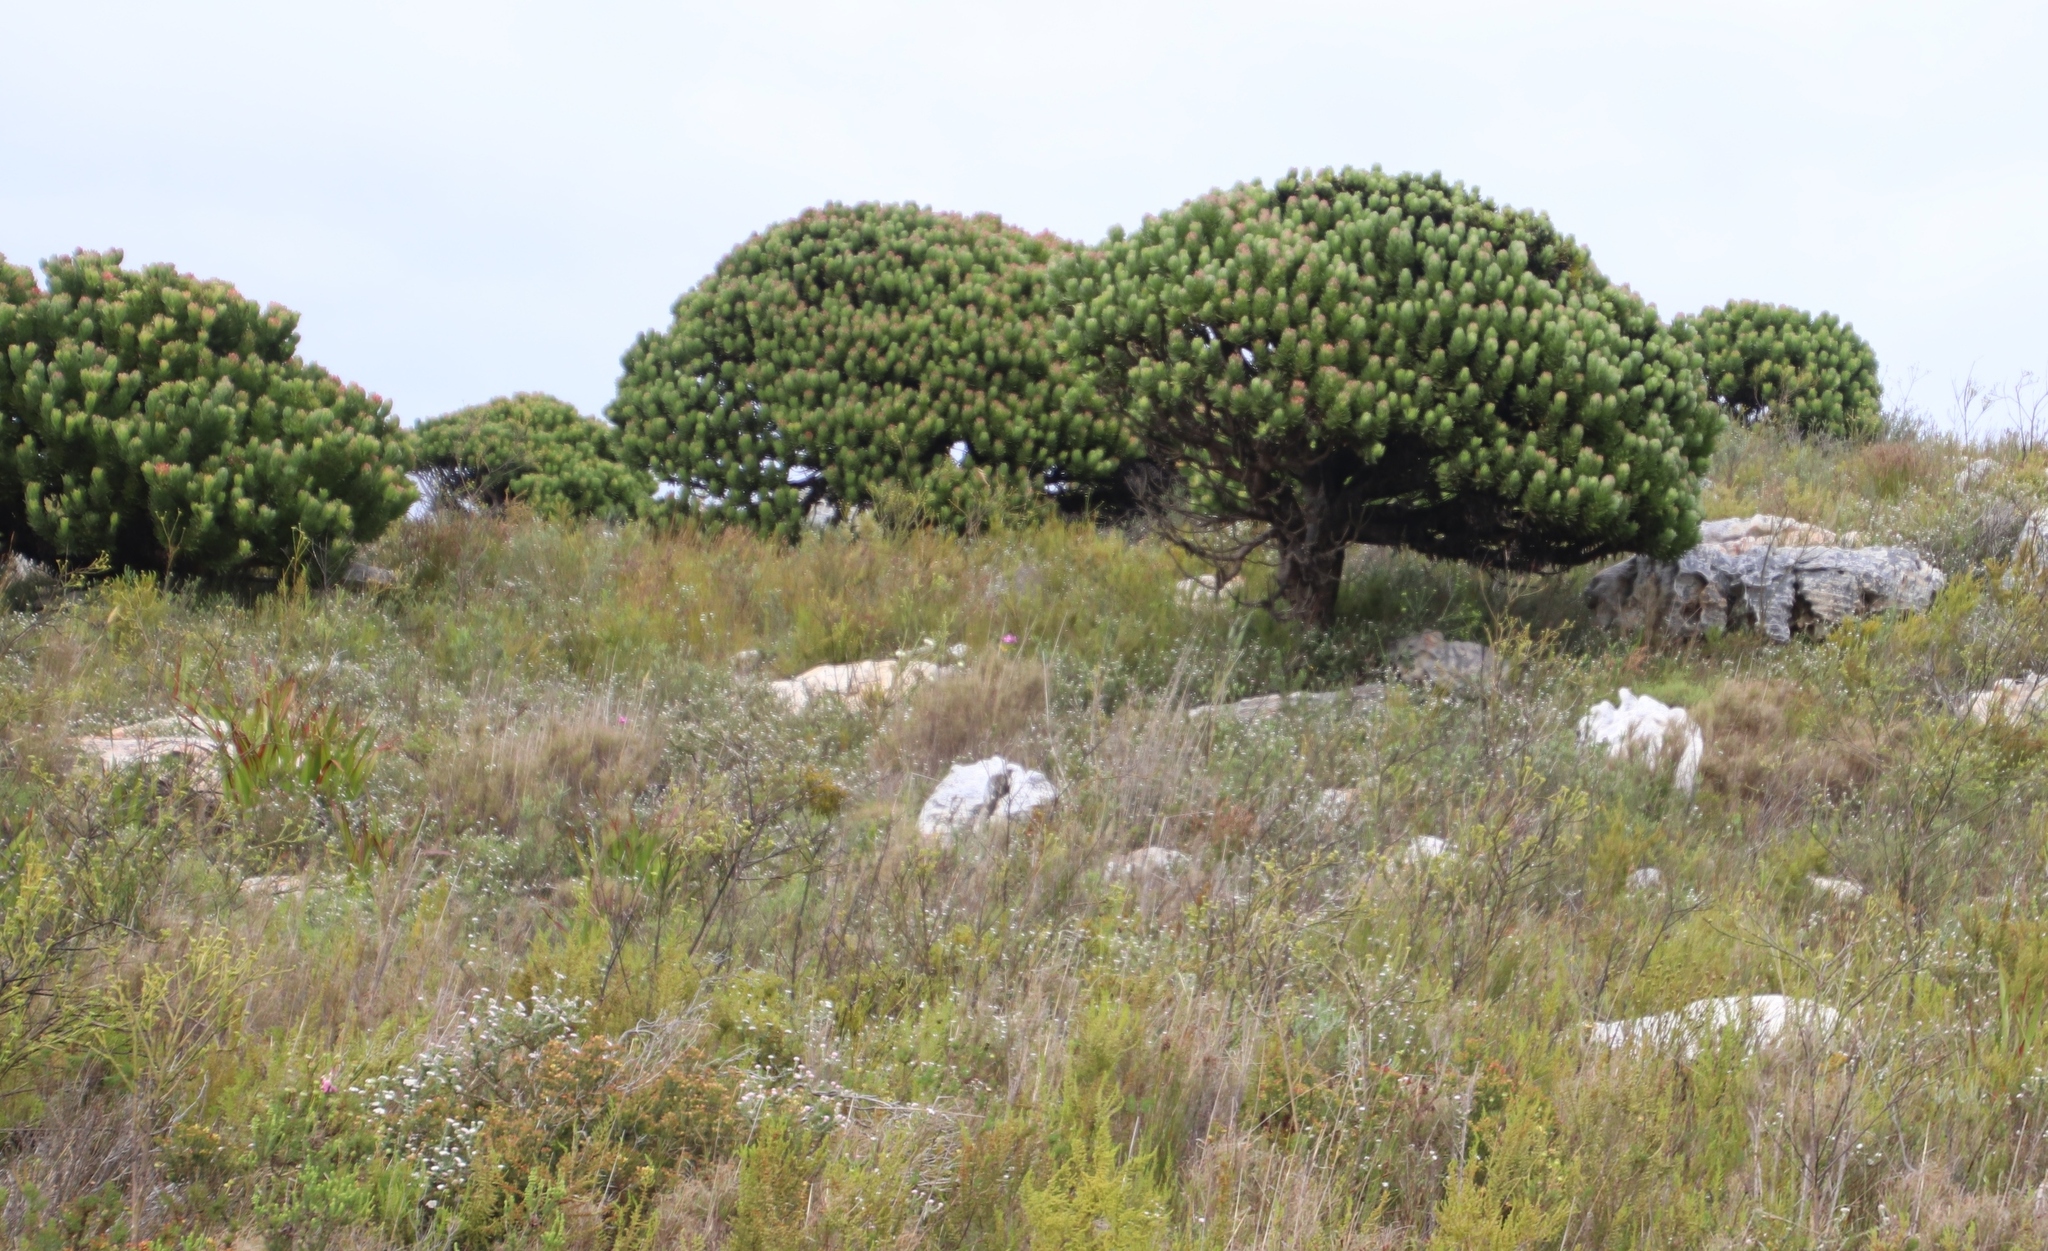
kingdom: Plantae
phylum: Tracheophyta
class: Magnoliopsida
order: Proteales
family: Proteaceae
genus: Mimetes
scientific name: Mimetes fimbriifolius
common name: Fringed bottlebrush
